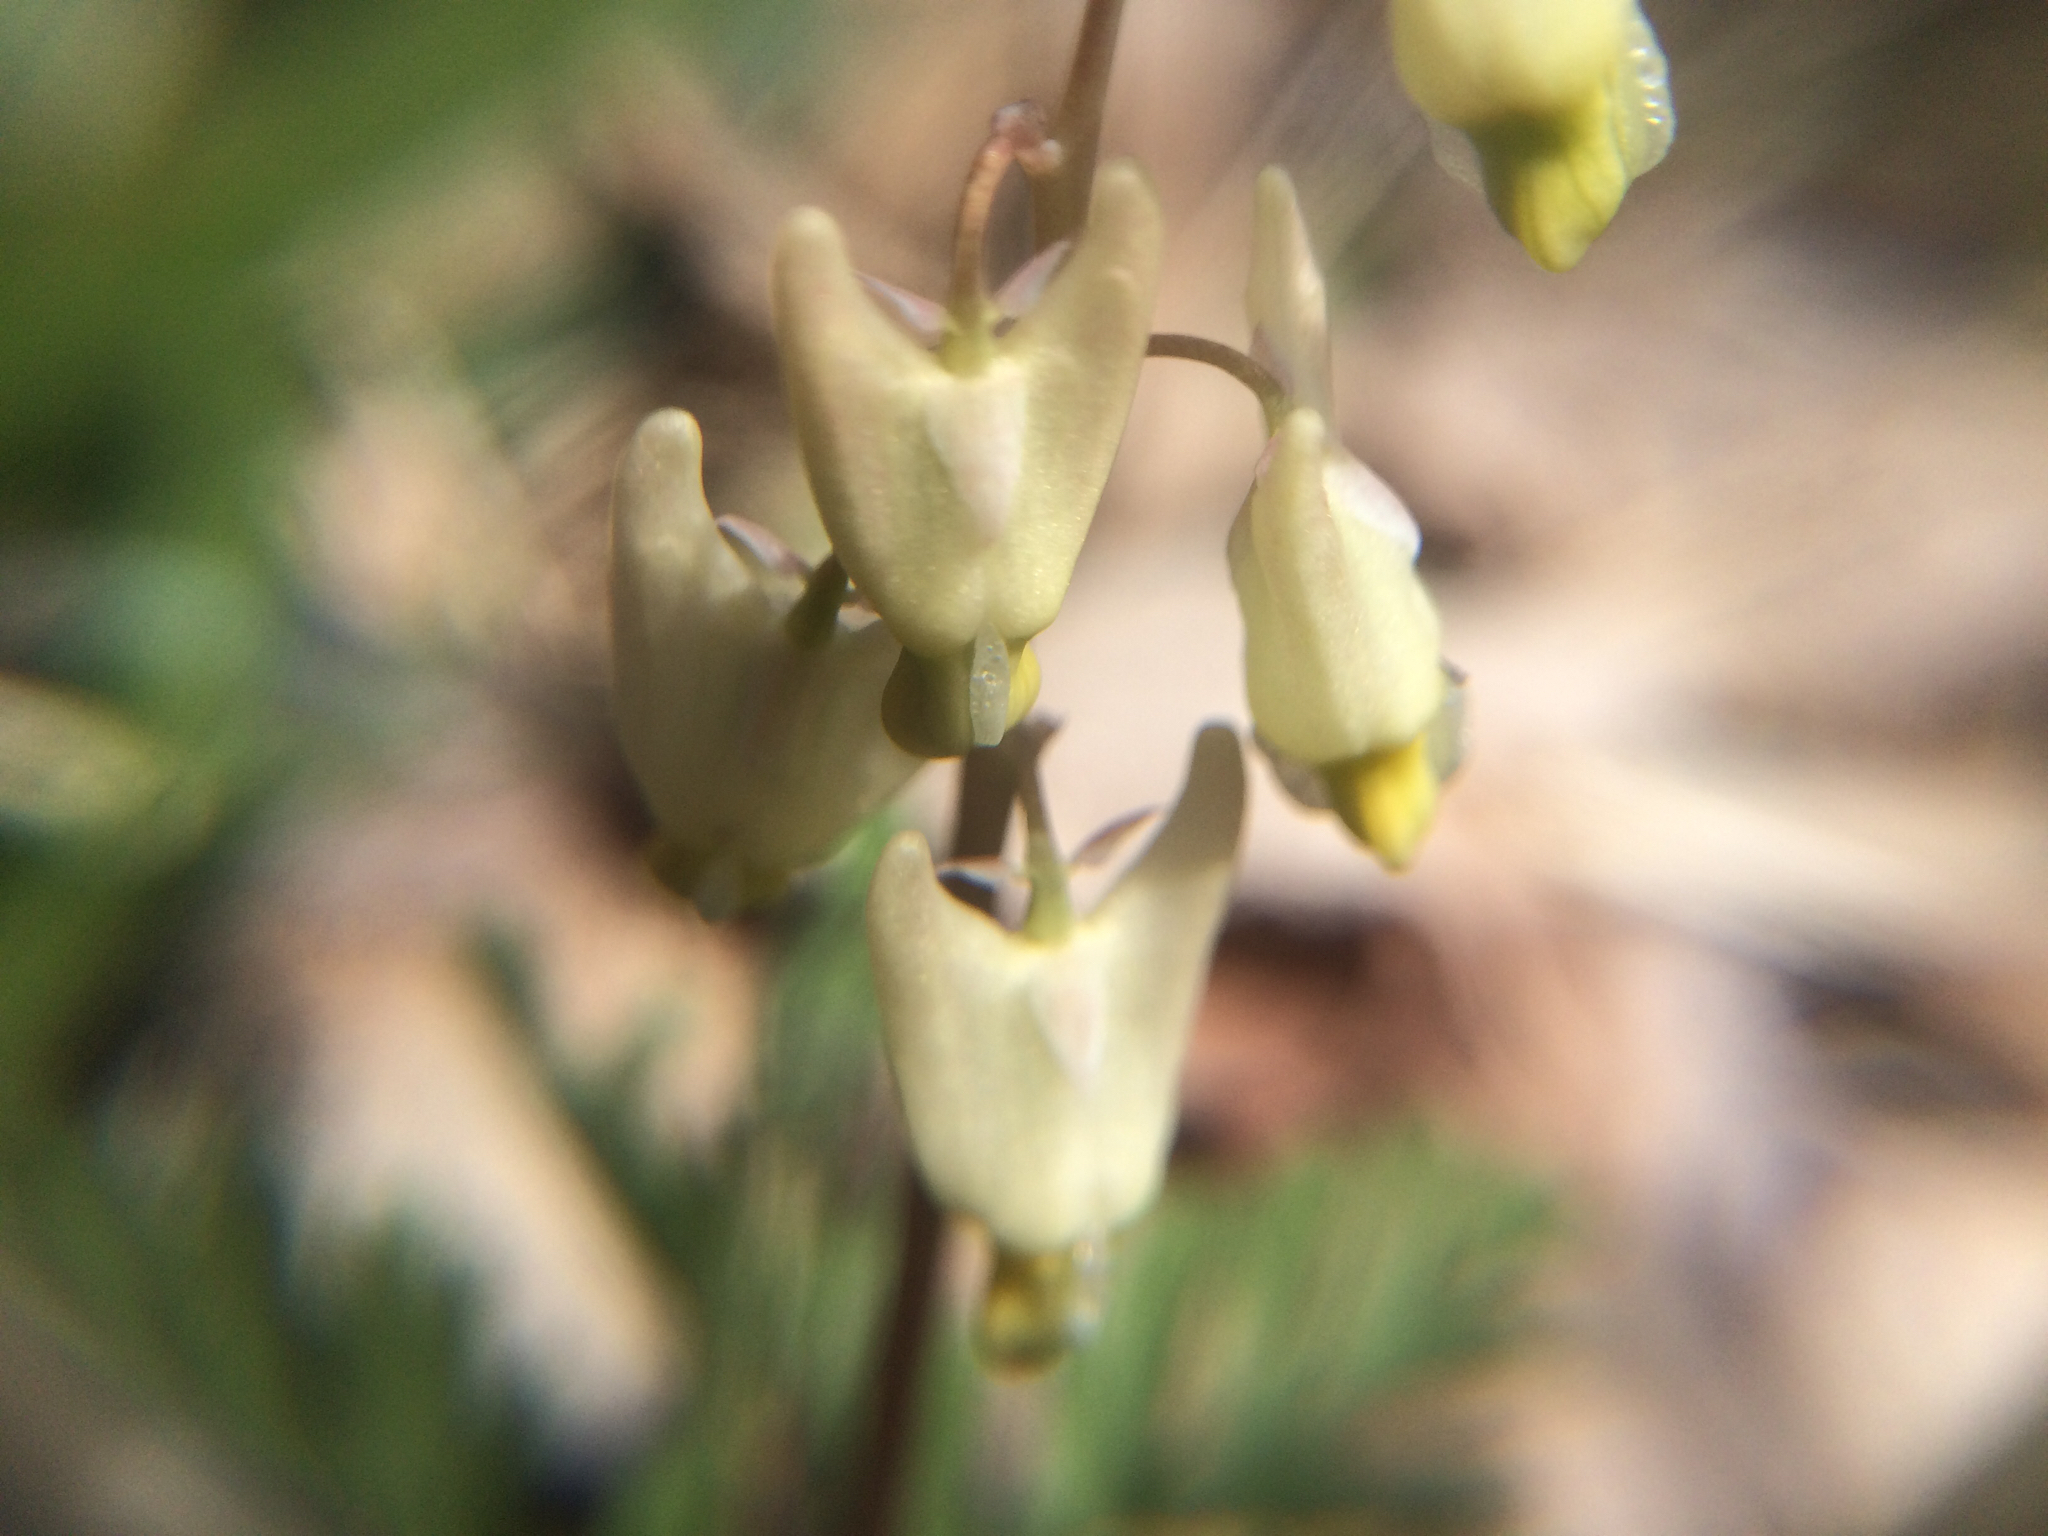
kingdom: Plantae
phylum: Tracheophyta
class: Magnoliopsida
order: Ranunculales
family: Papaveraceae
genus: Dicentra
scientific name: Dicentra cucullaria
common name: Dutchman's breeches
